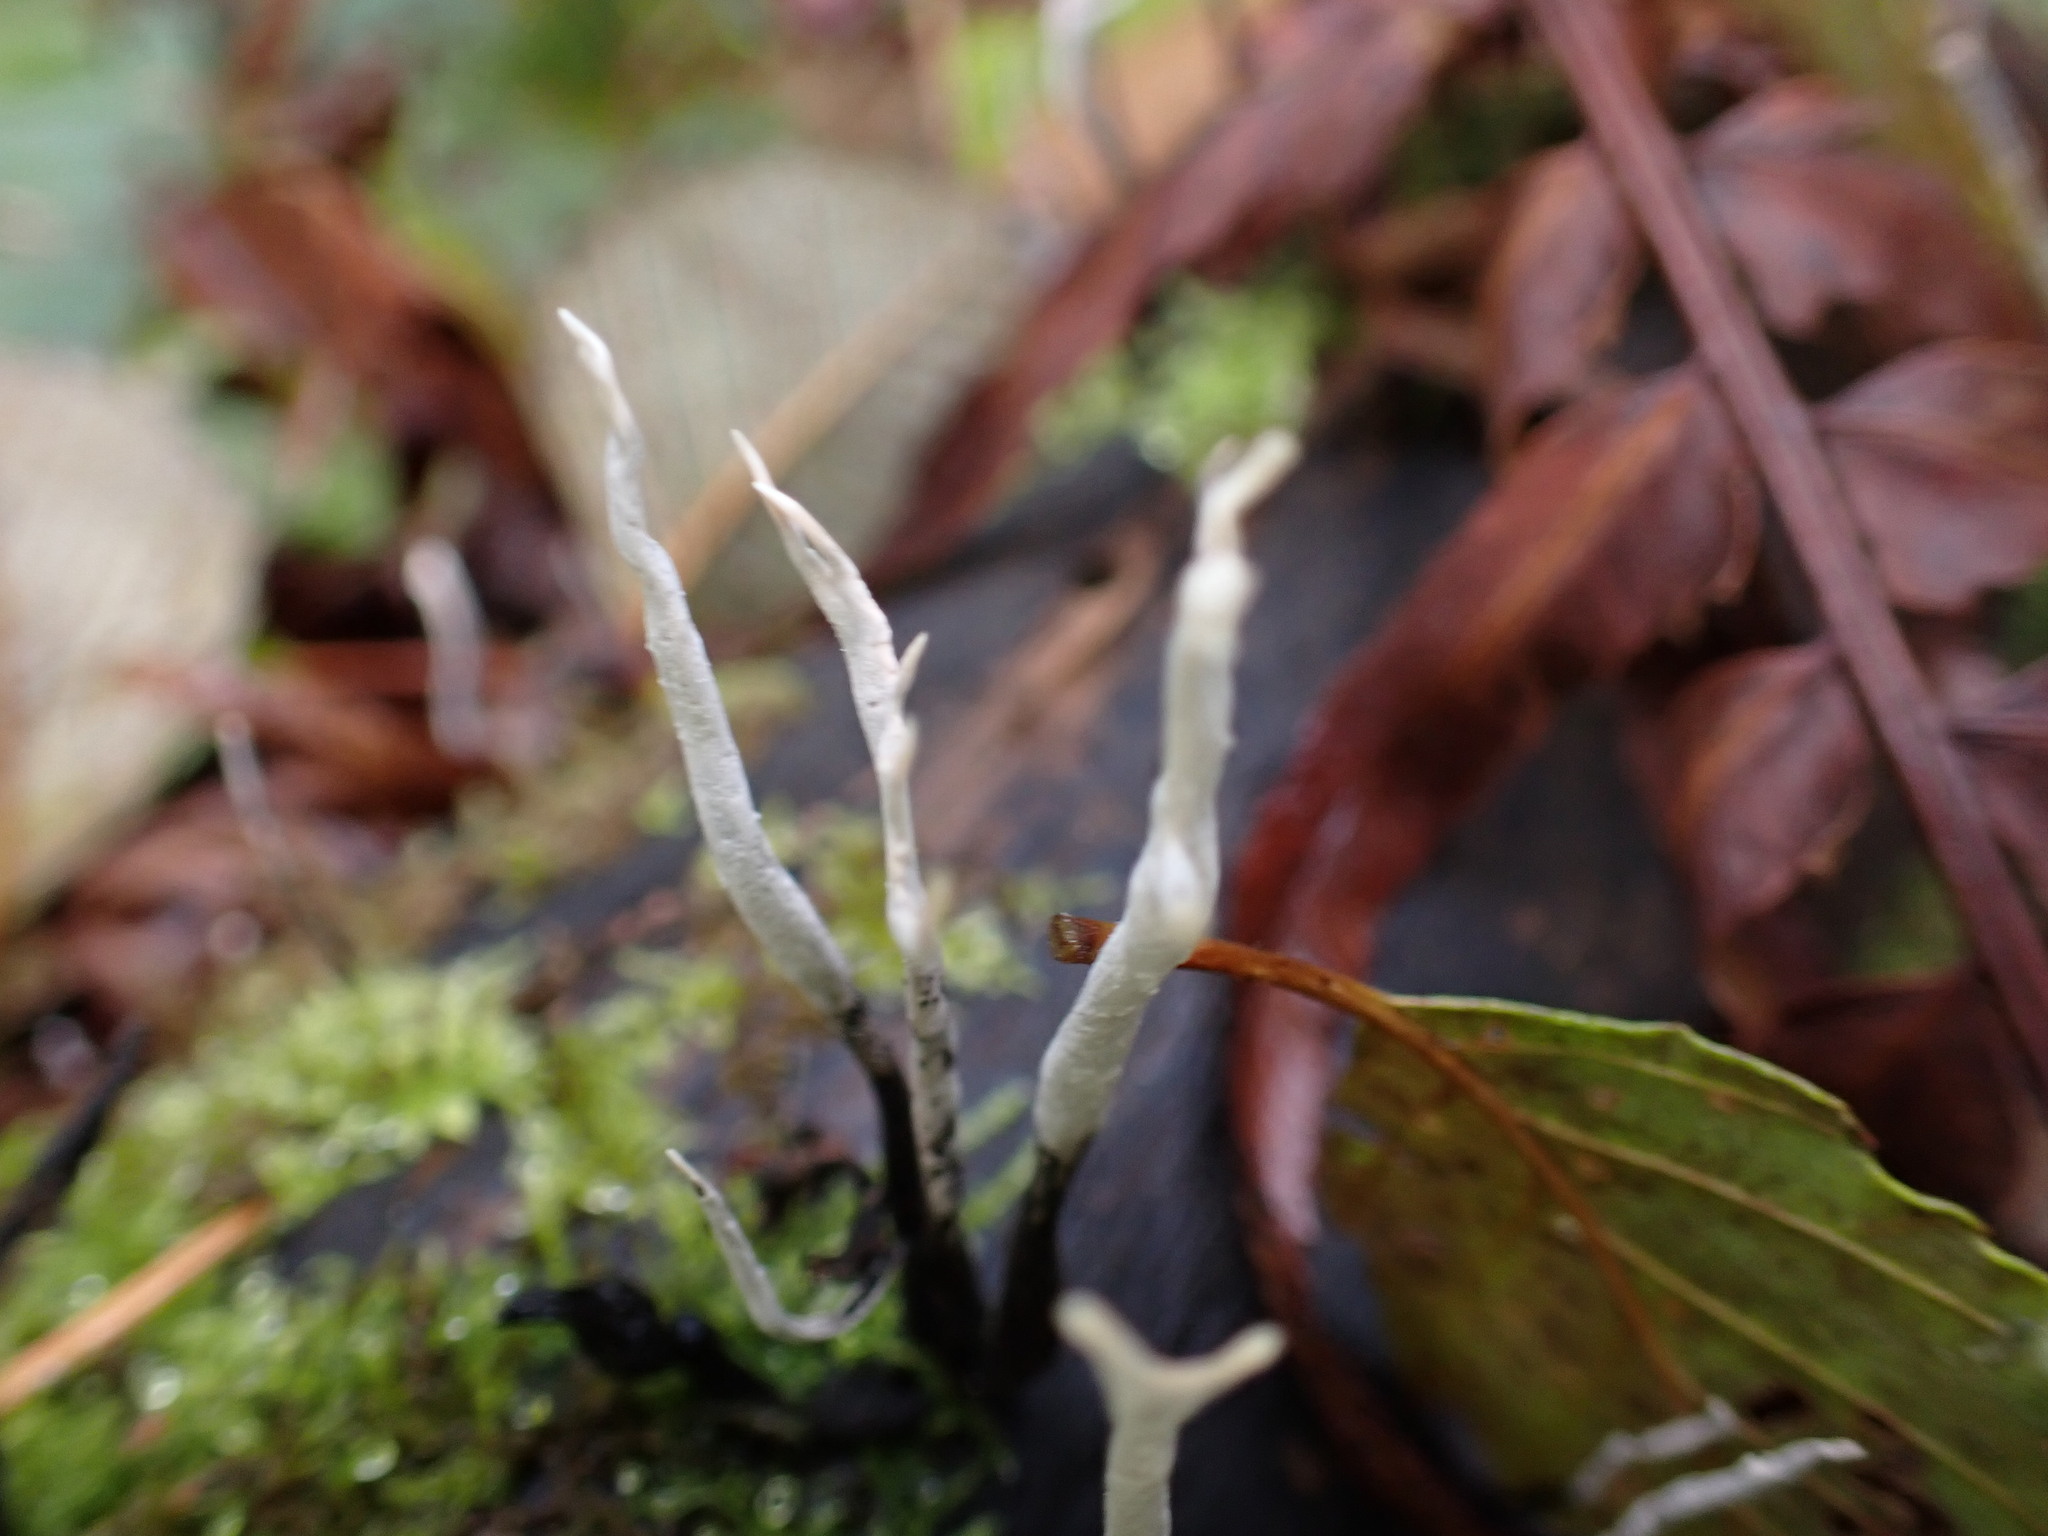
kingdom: Fungi
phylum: Ascomycota
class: Sordariomycetes
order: Xylariales
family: Xylariaceae
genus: Xylaria
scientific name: Xylaria hypoxylon
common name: Candle-snuff fungus
